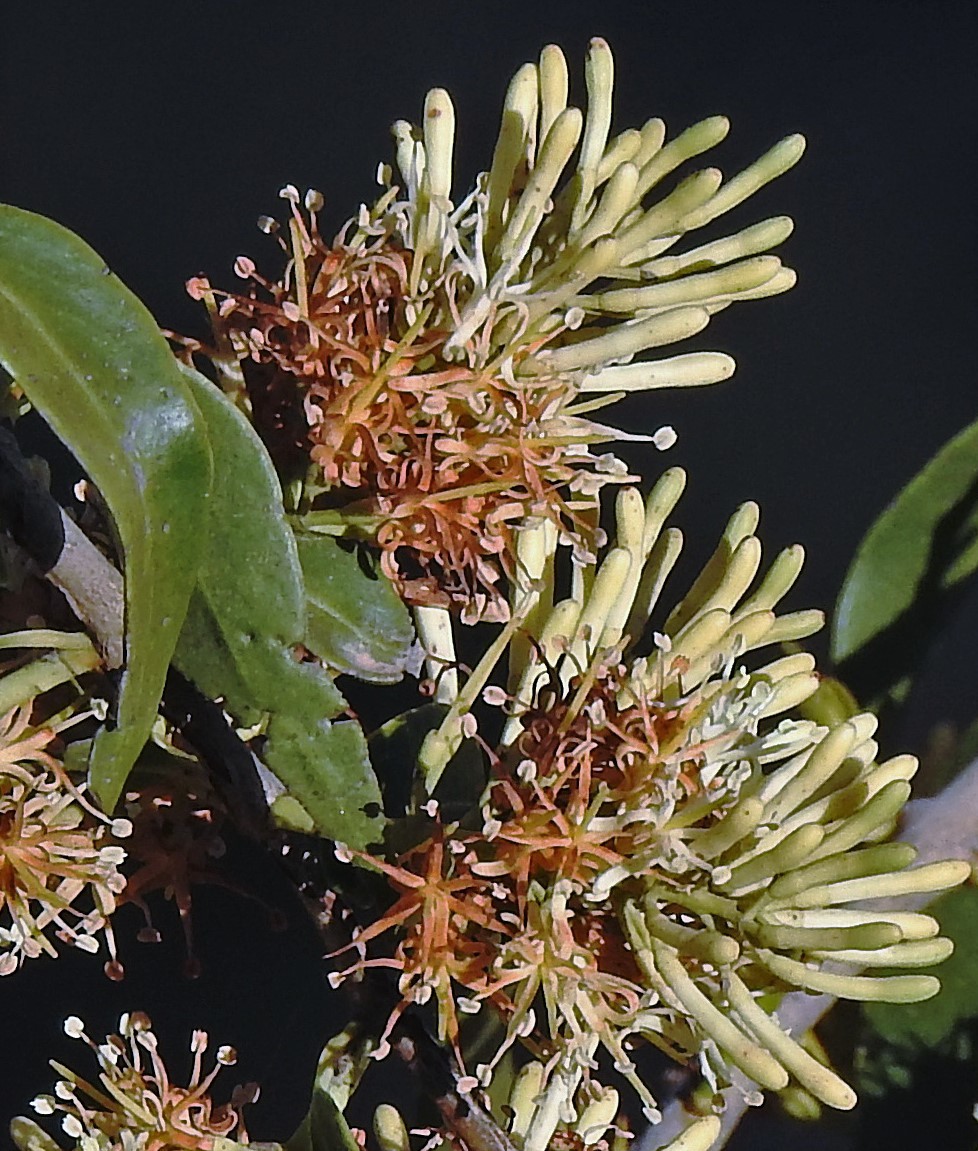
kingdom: Plantae
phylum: Tracheophyta
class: Magnoliopsida
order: Santalales
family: Loranthaceae
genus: Tripodanthus
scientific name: Tripodanthus acutifolius
